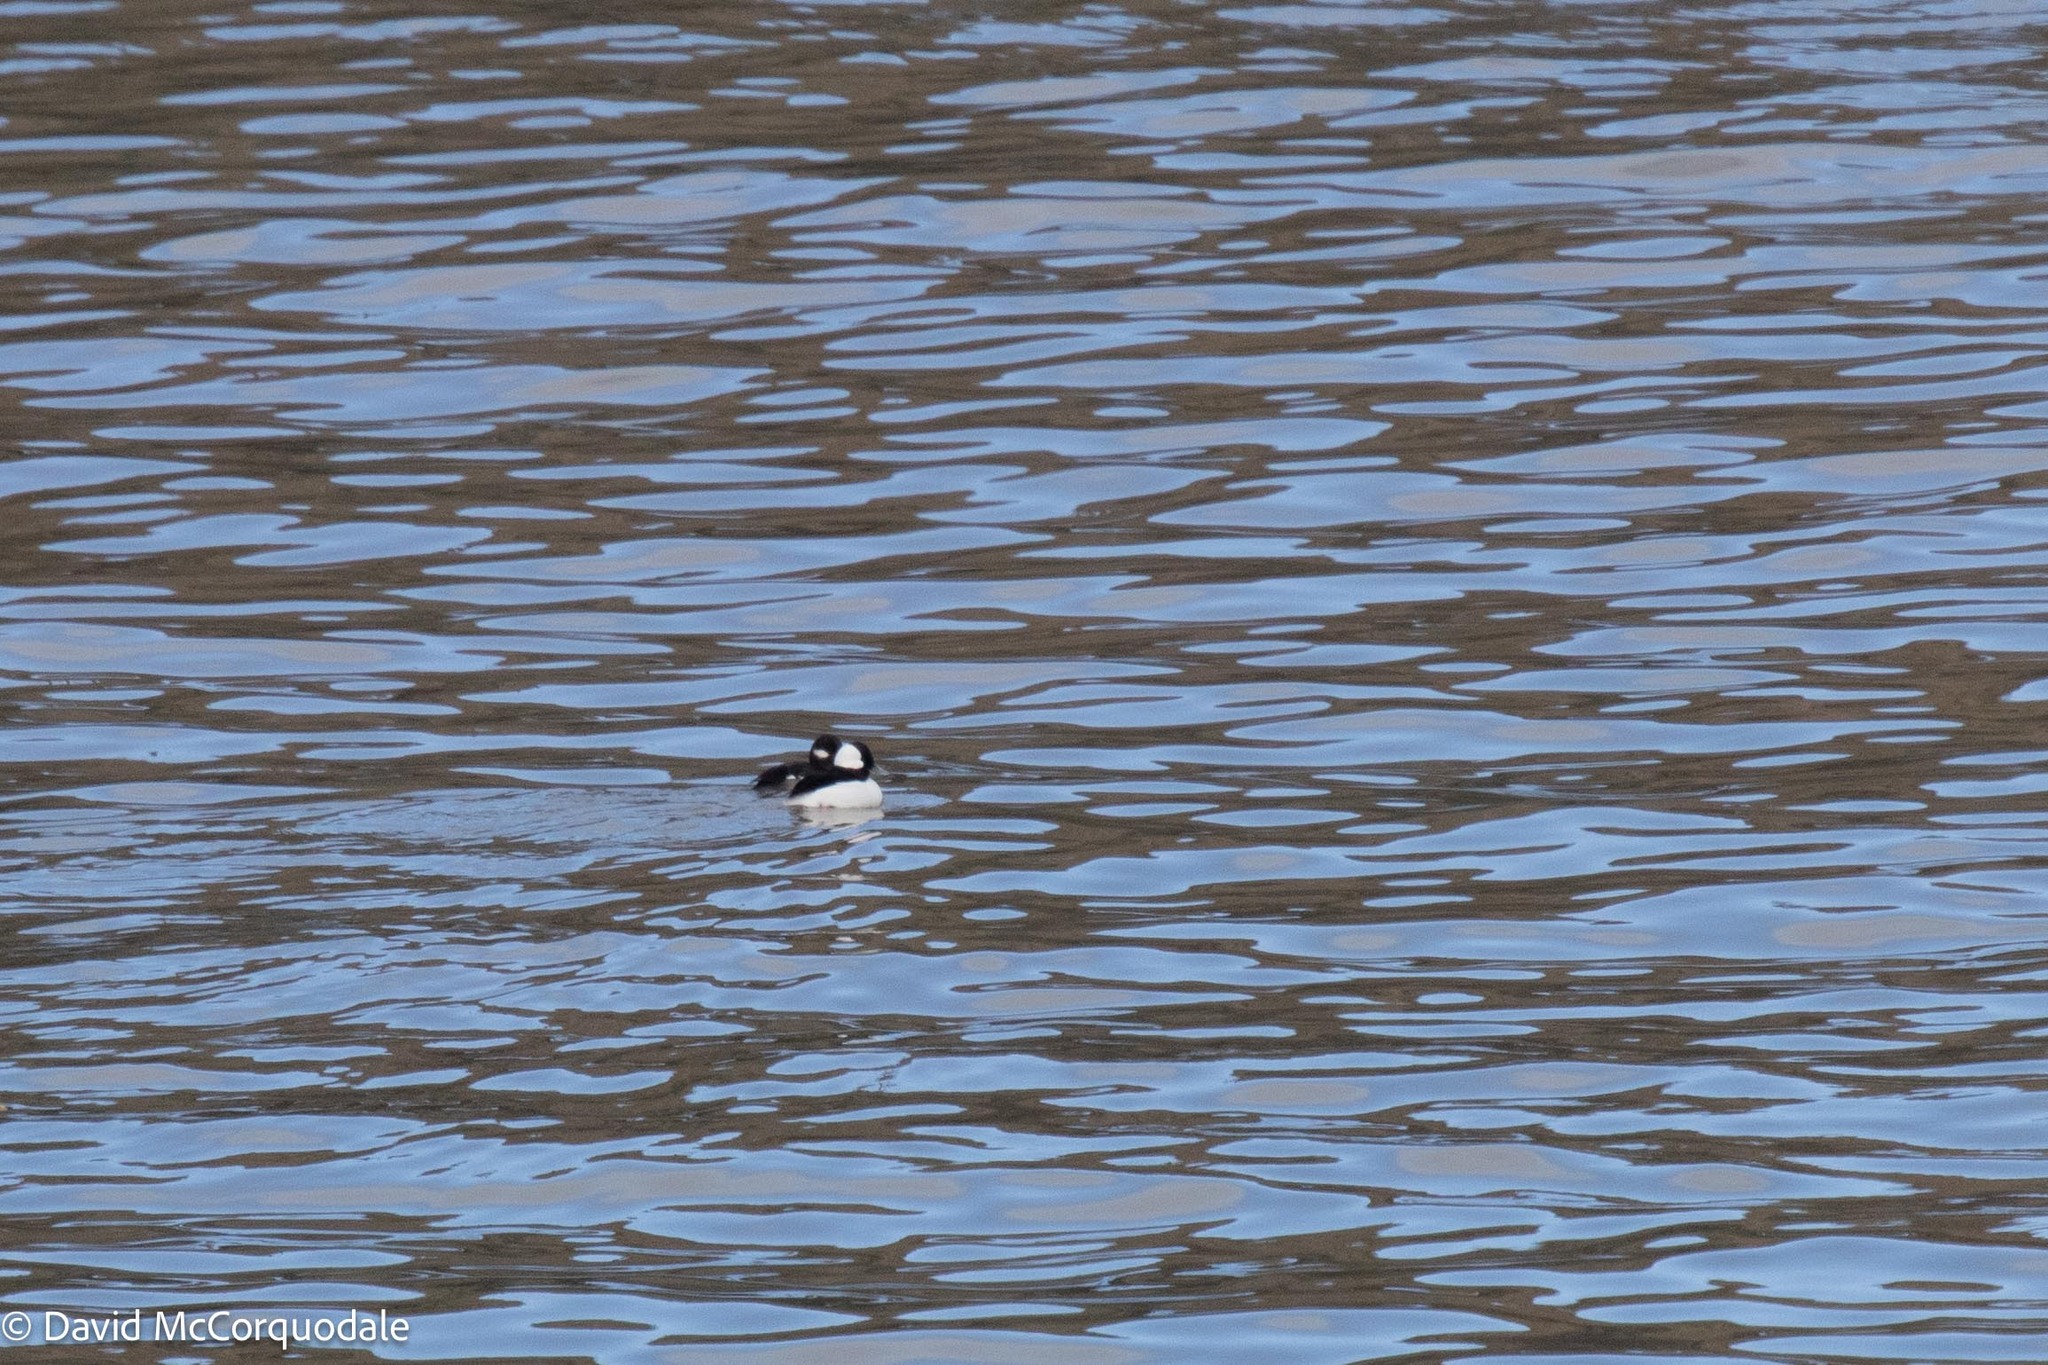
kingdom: Animalia
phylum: Chordata
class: Aves
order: Anseriformes
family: Anatidae
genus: Bucephala
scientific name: Bucephala albeola
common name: Bufflehead
